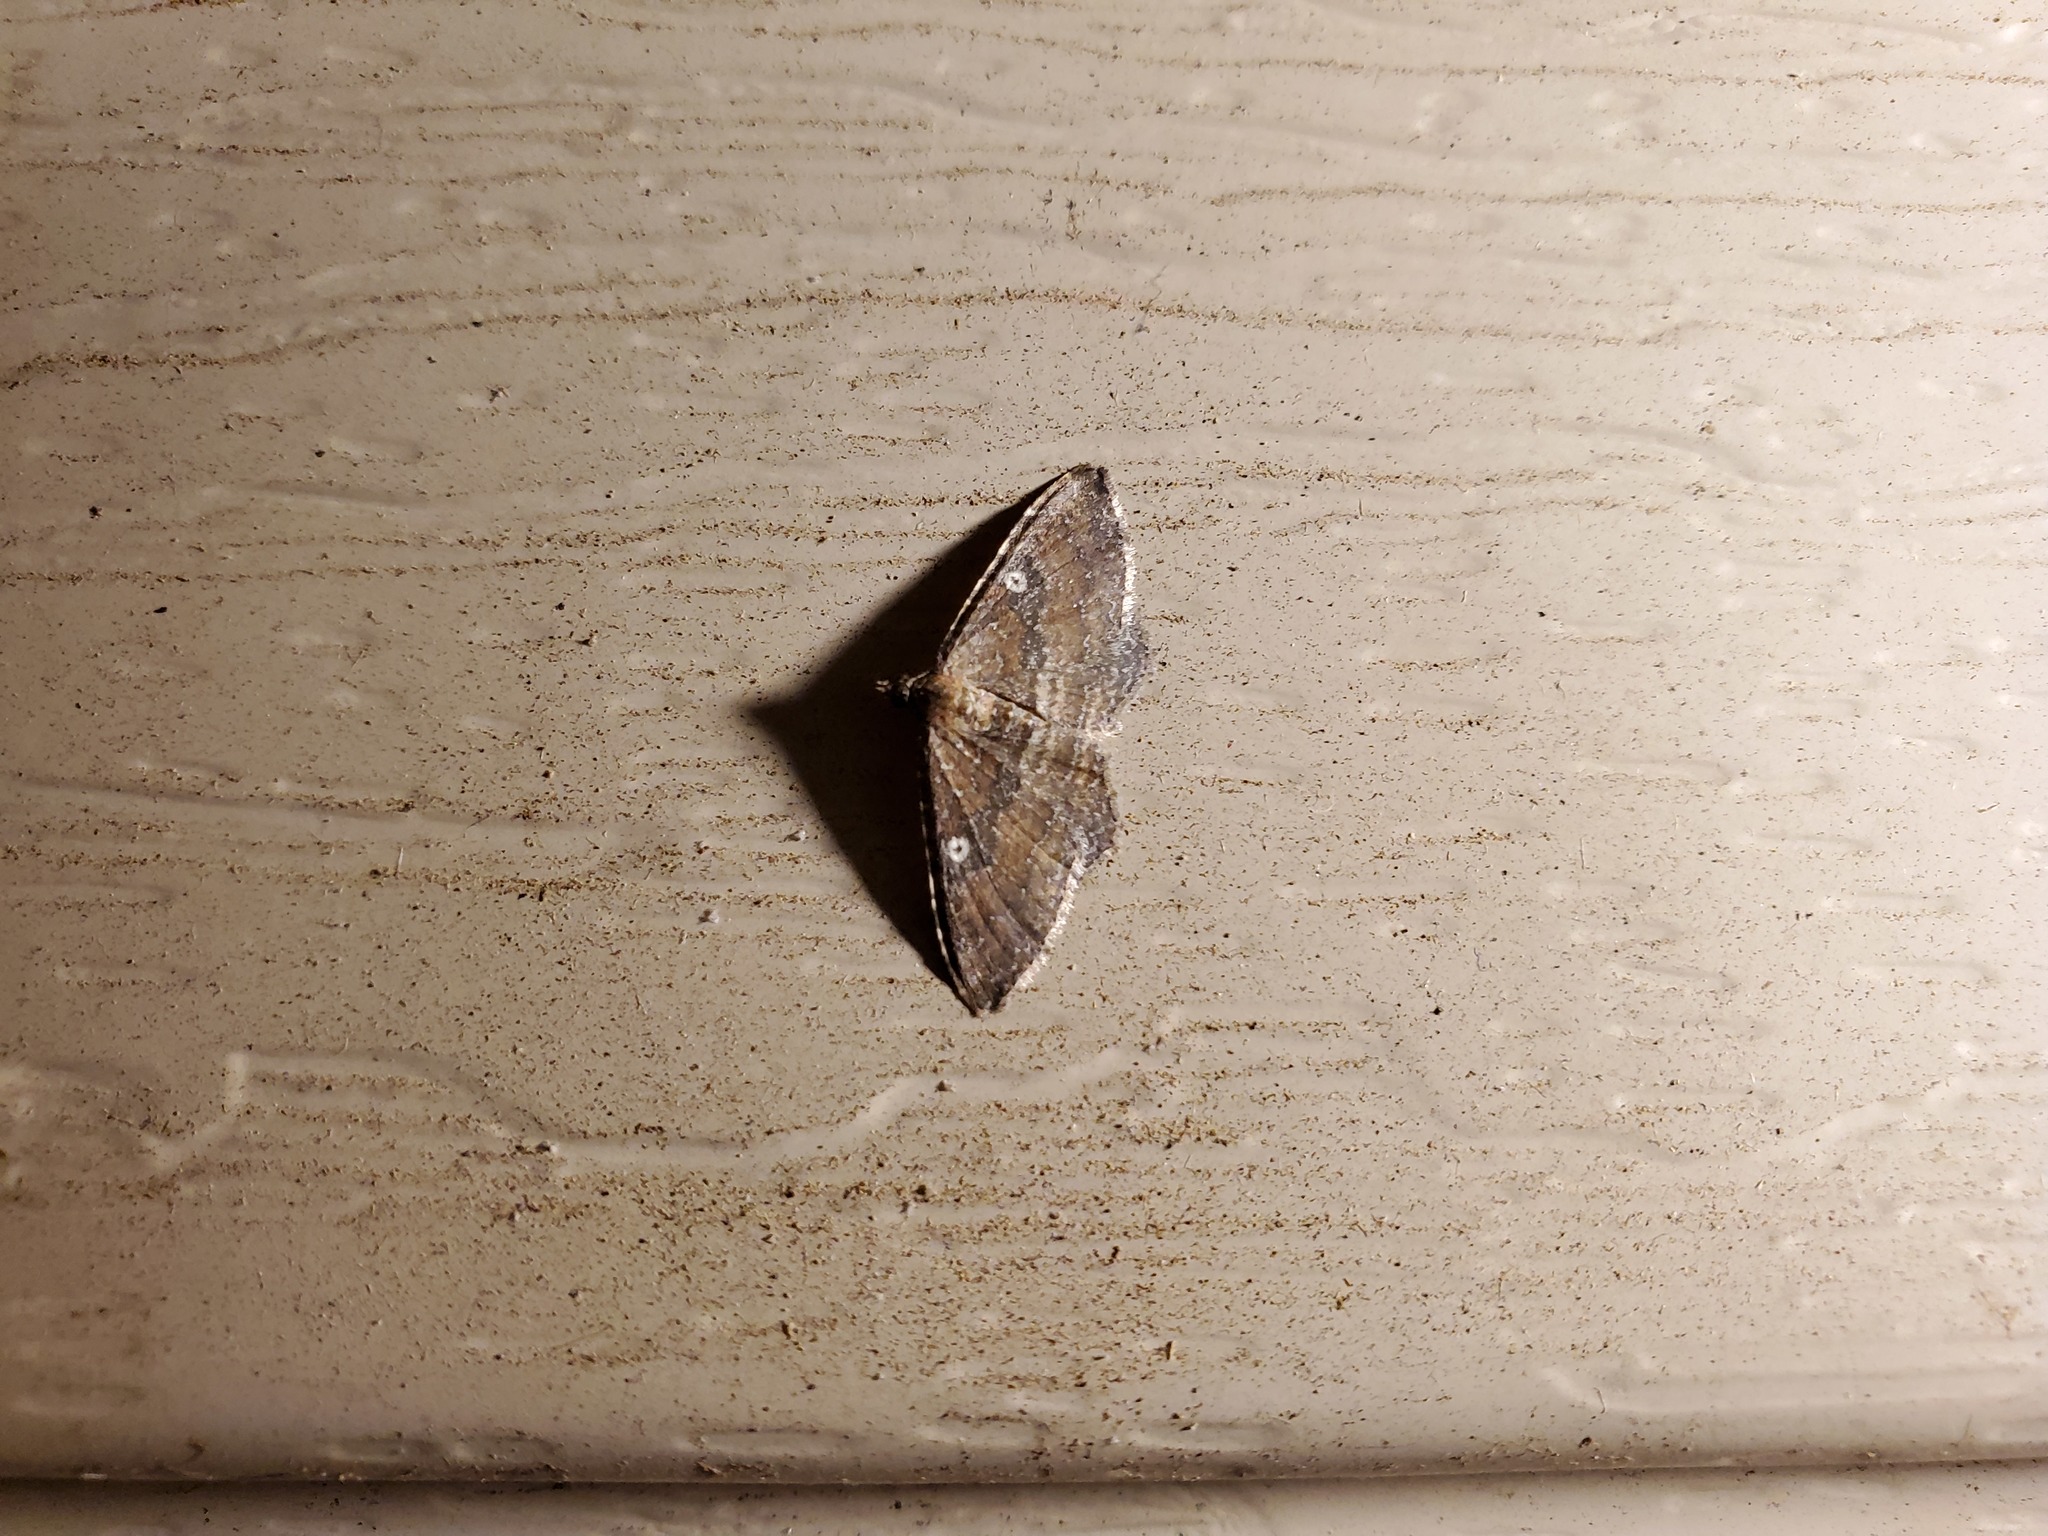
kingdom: Animalia
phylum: Arthropoda
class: Insecta
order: Lepidoptera
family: Geometridae
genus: Orthonama
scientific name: Orthonama obstipata
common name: The gem
